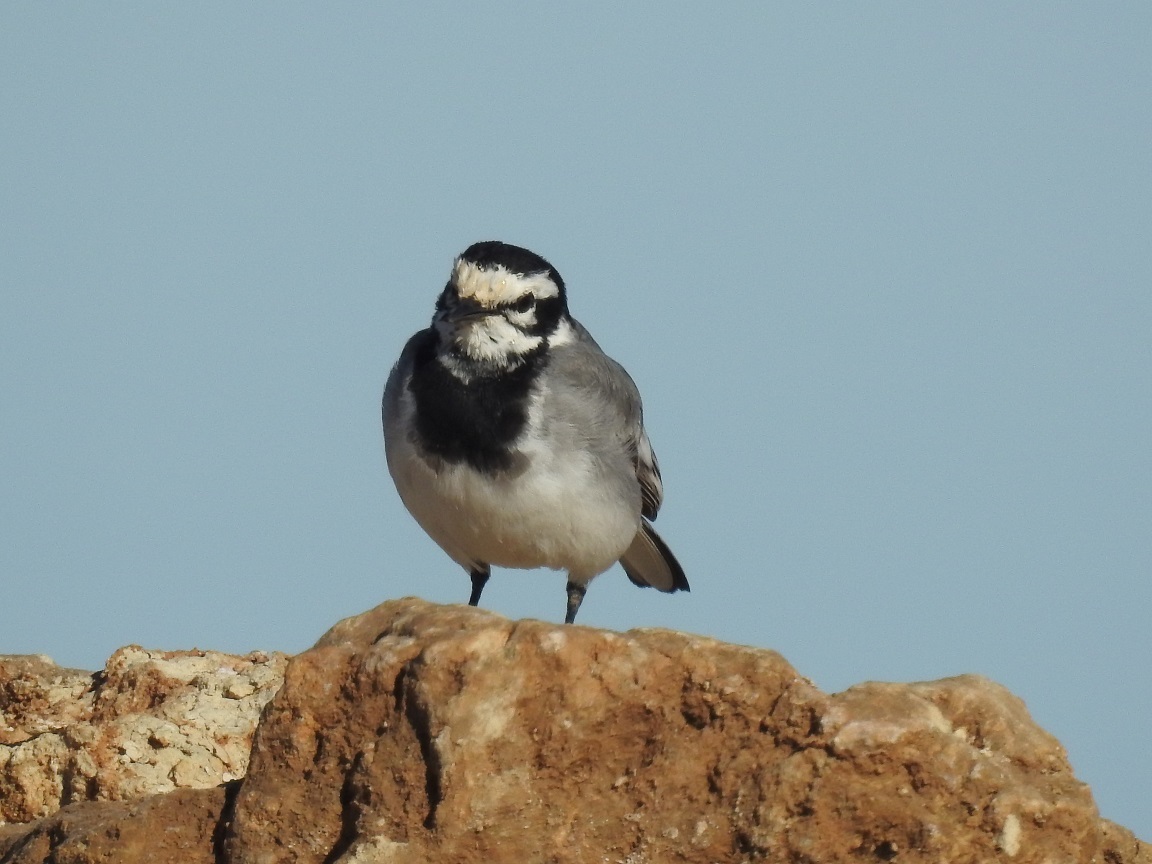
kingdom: Animalia
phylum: Chordata
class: Aves
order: Passeriformes
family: Motacillidae
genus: Motacilla
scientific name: Motacilla alba
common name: White wagtail
